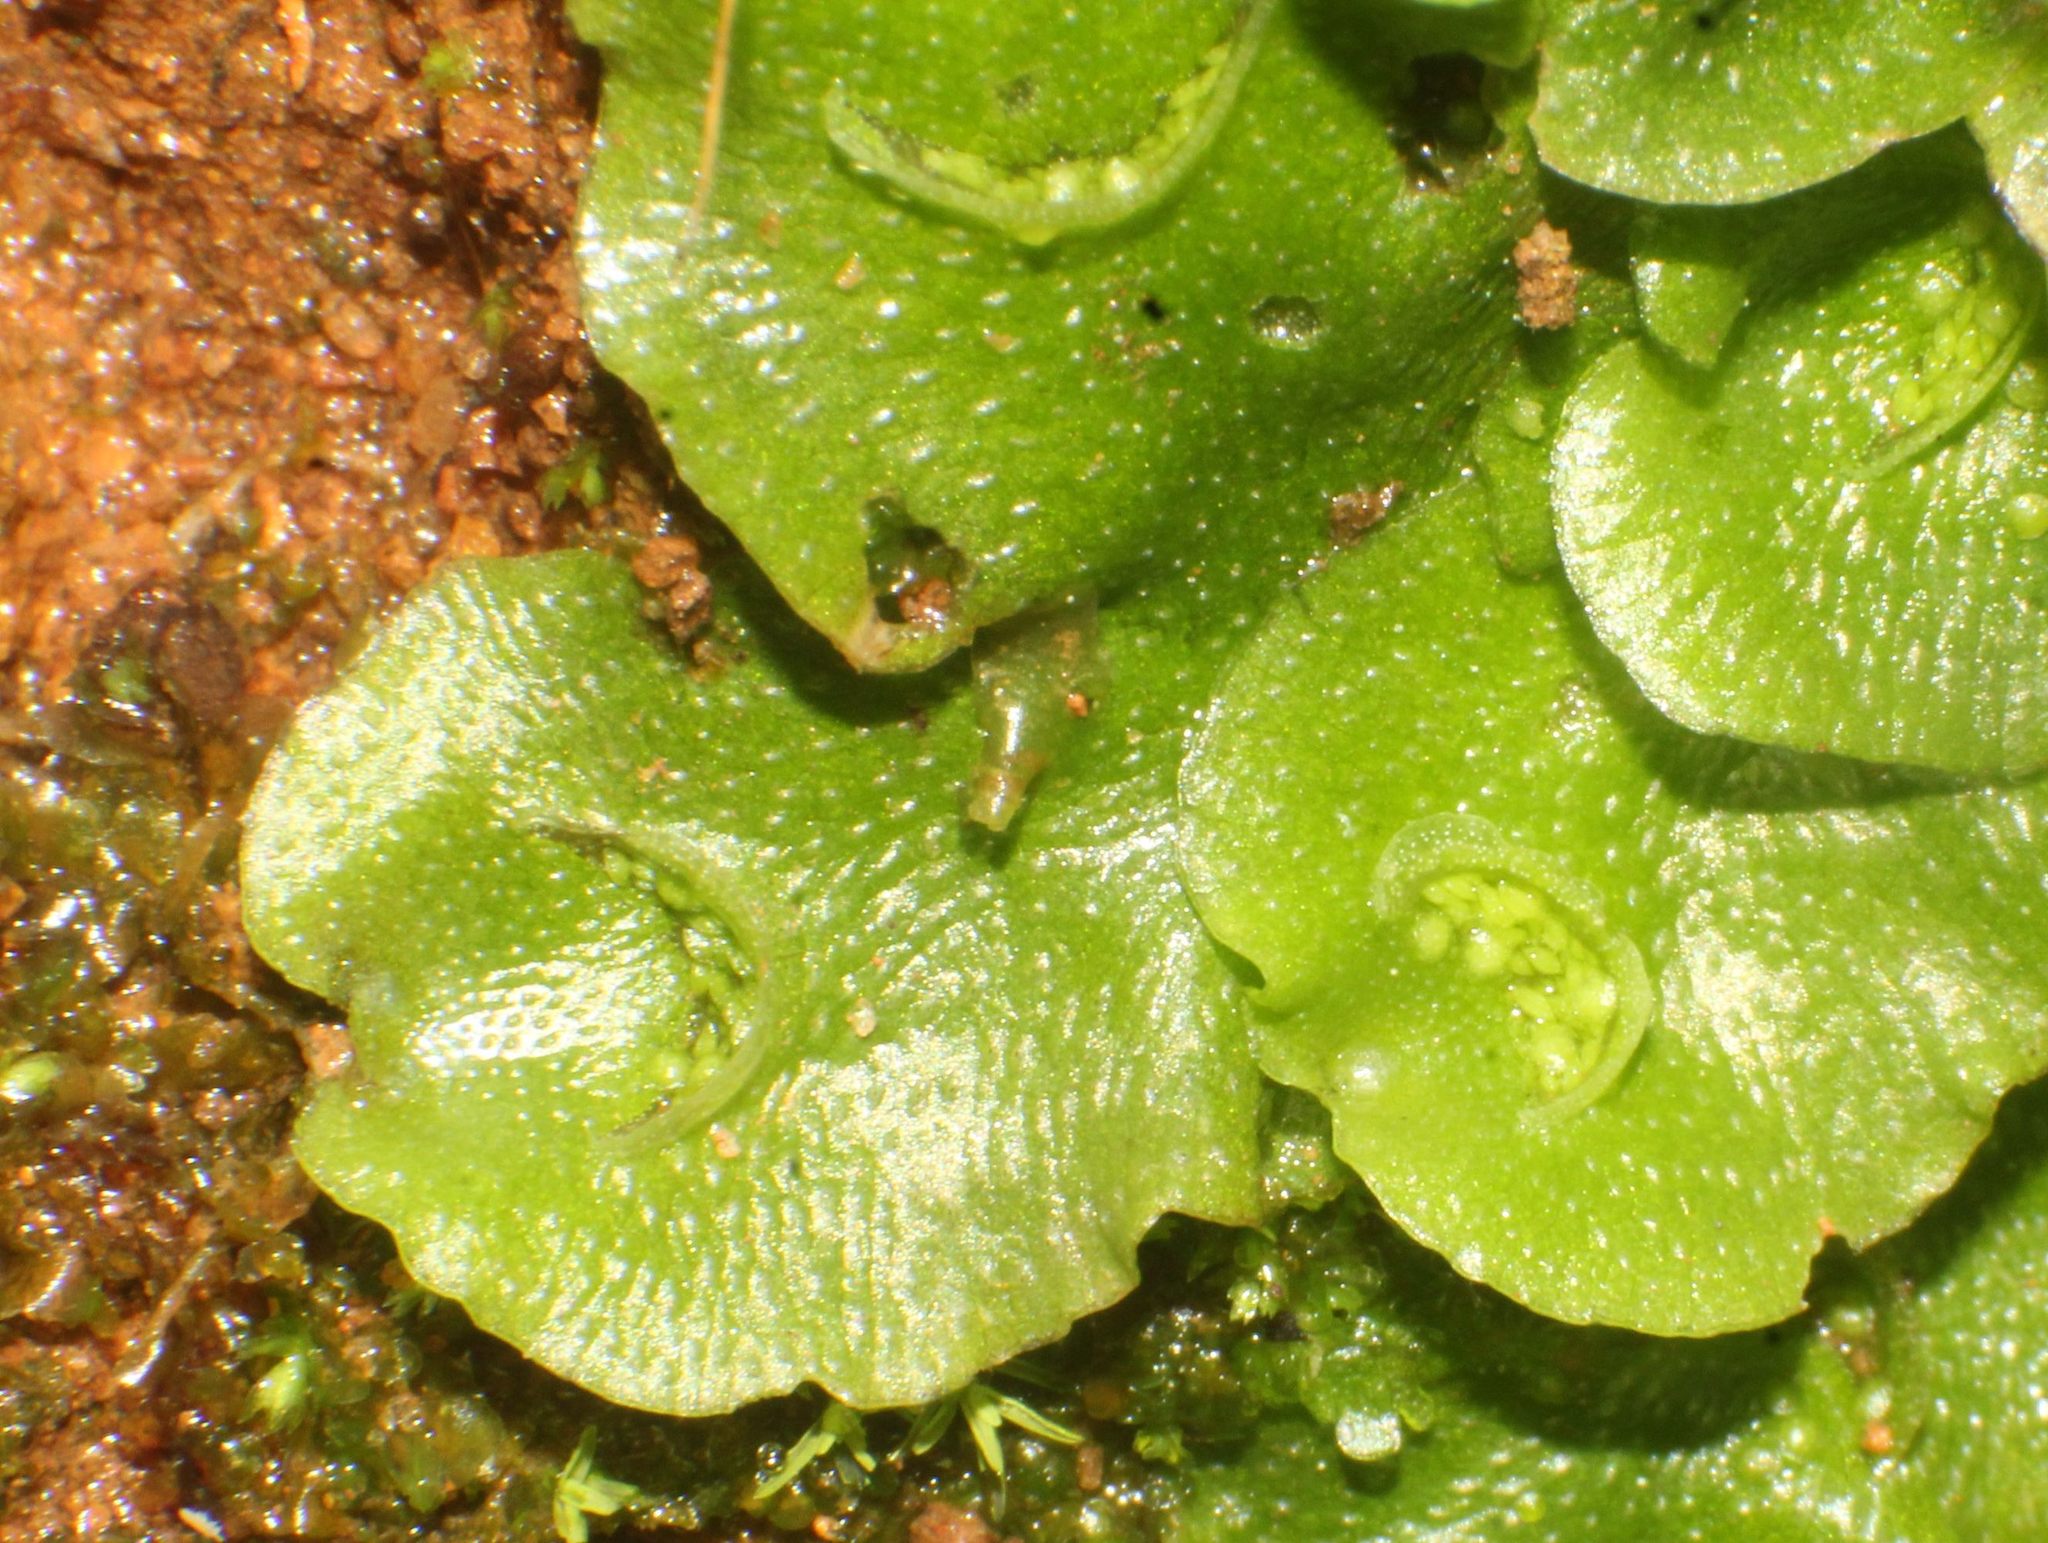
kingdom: Plantae
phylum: Marchantiophyta
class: Marchantiopsida
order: Lunulariales
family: Lunulariaceae
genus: Lunularia
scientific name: Lunularia cruciata
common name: Crescent-cup liverwort
